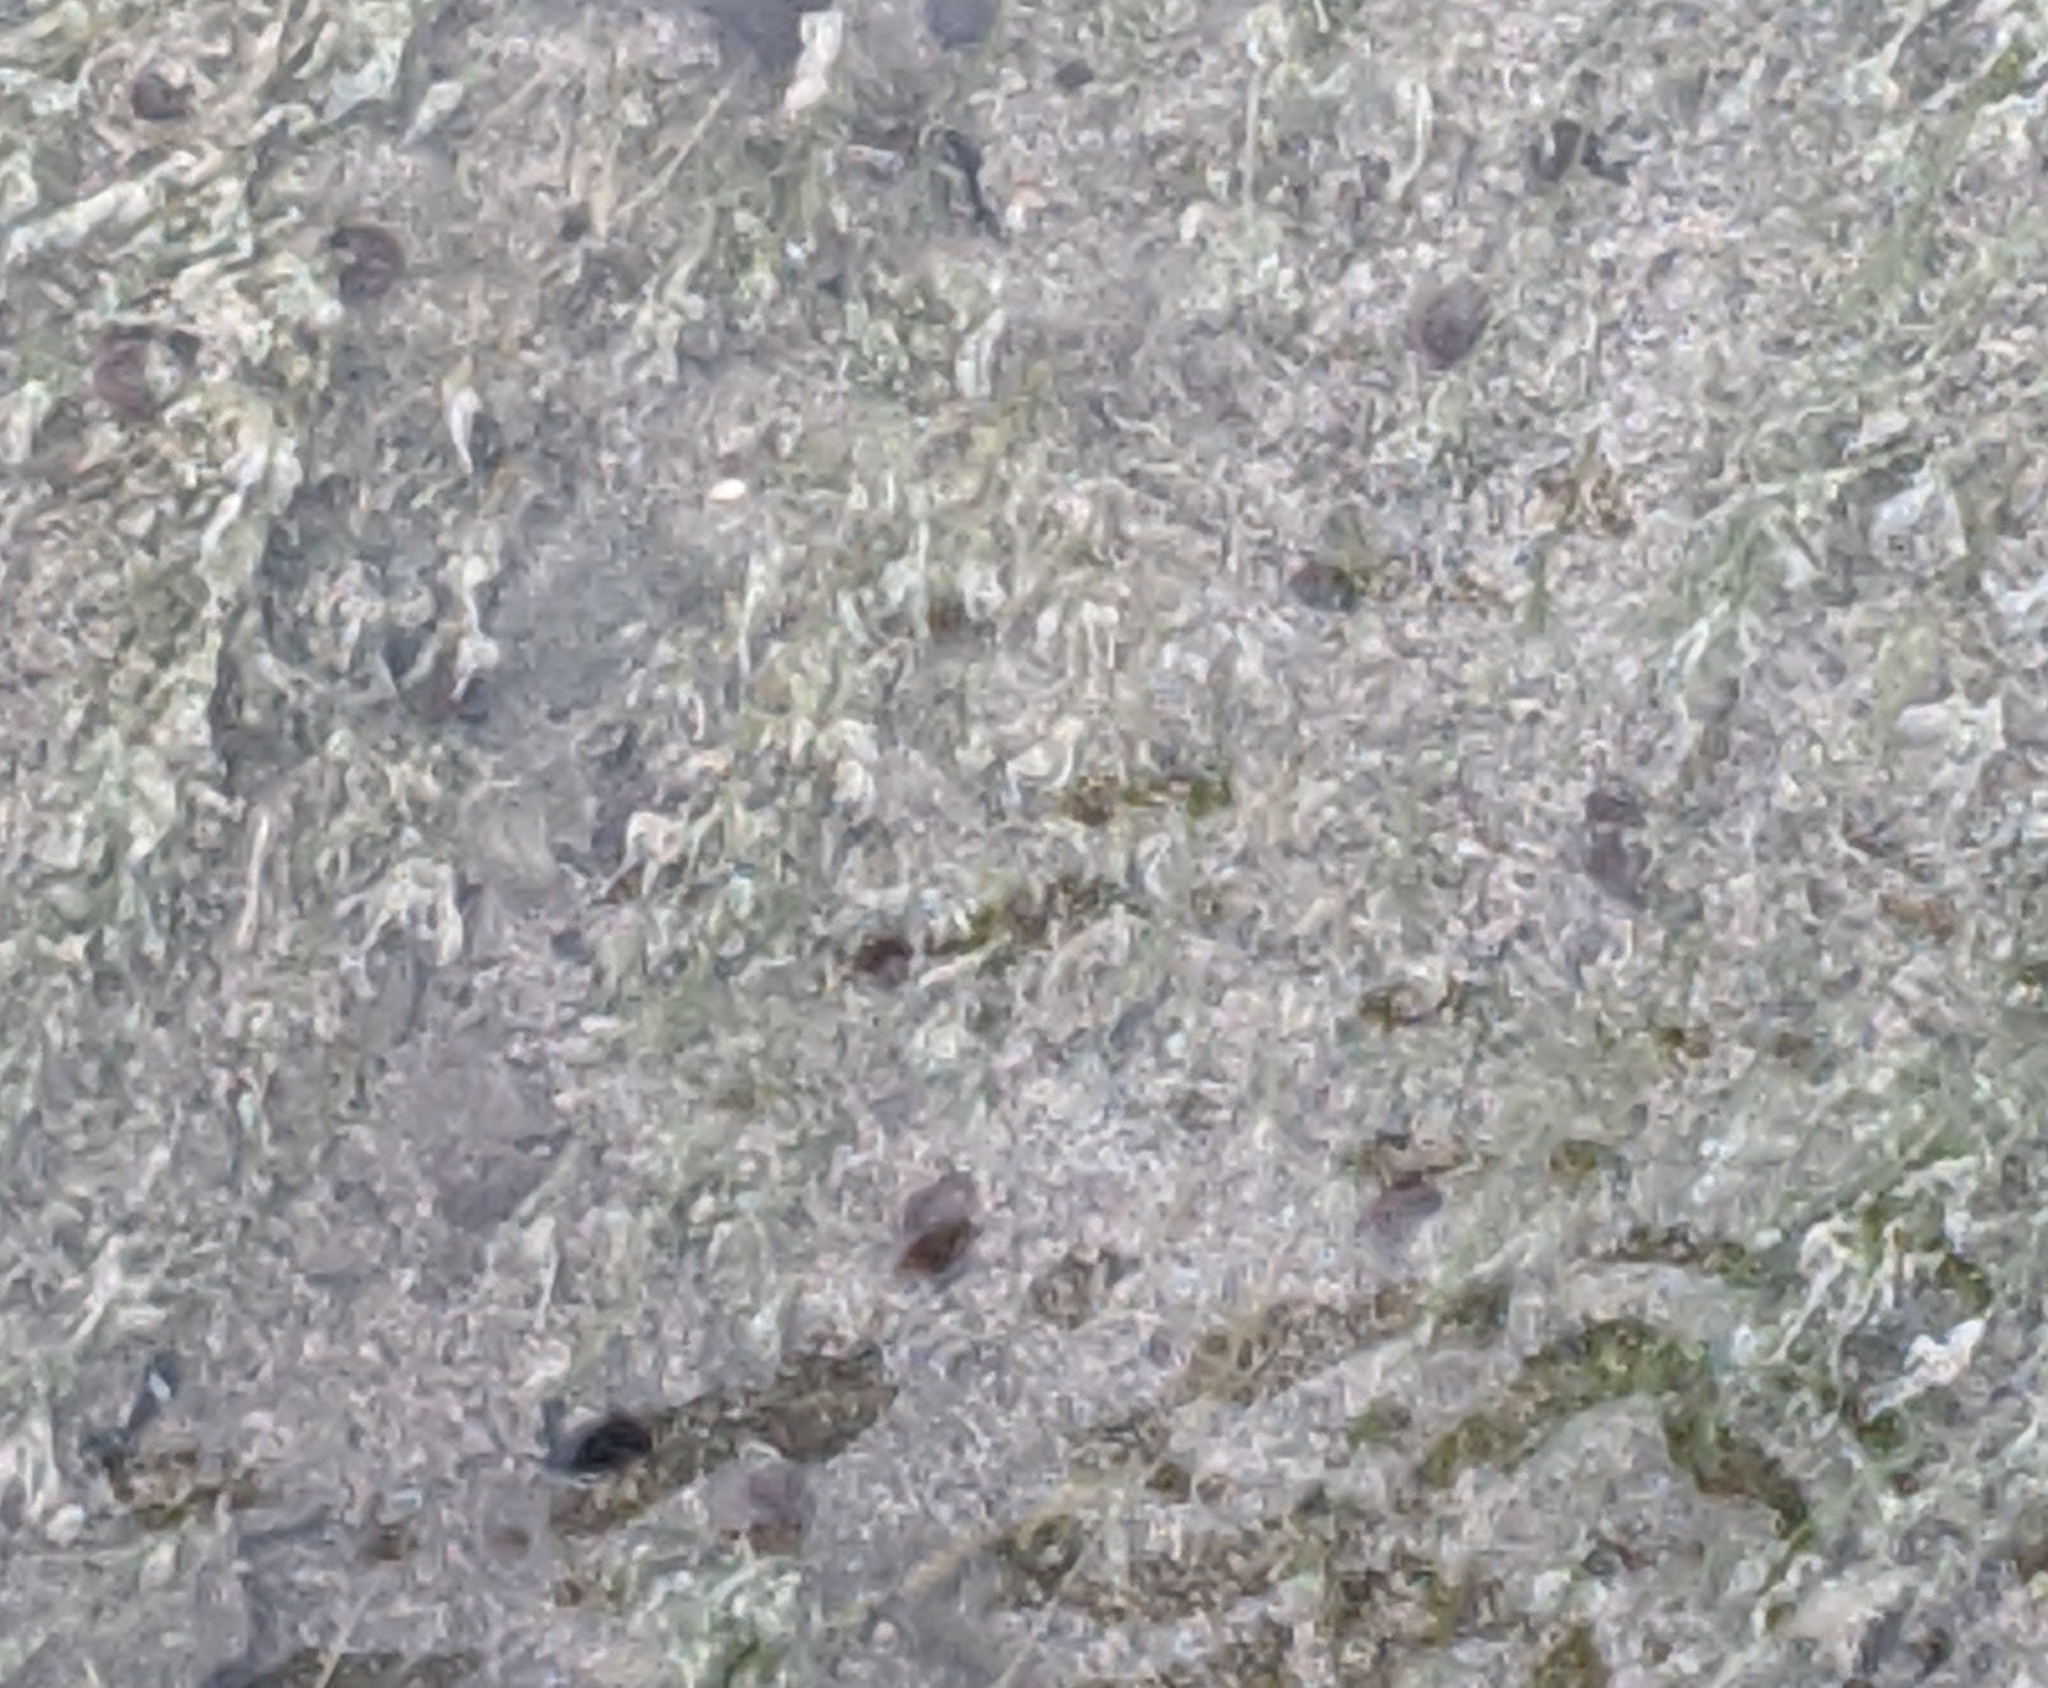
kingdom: Animalia
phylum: Mollusca
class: Gastropoda
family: Physidae
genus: Physella
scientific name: Physella johnsoni
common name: Banff springs physa
